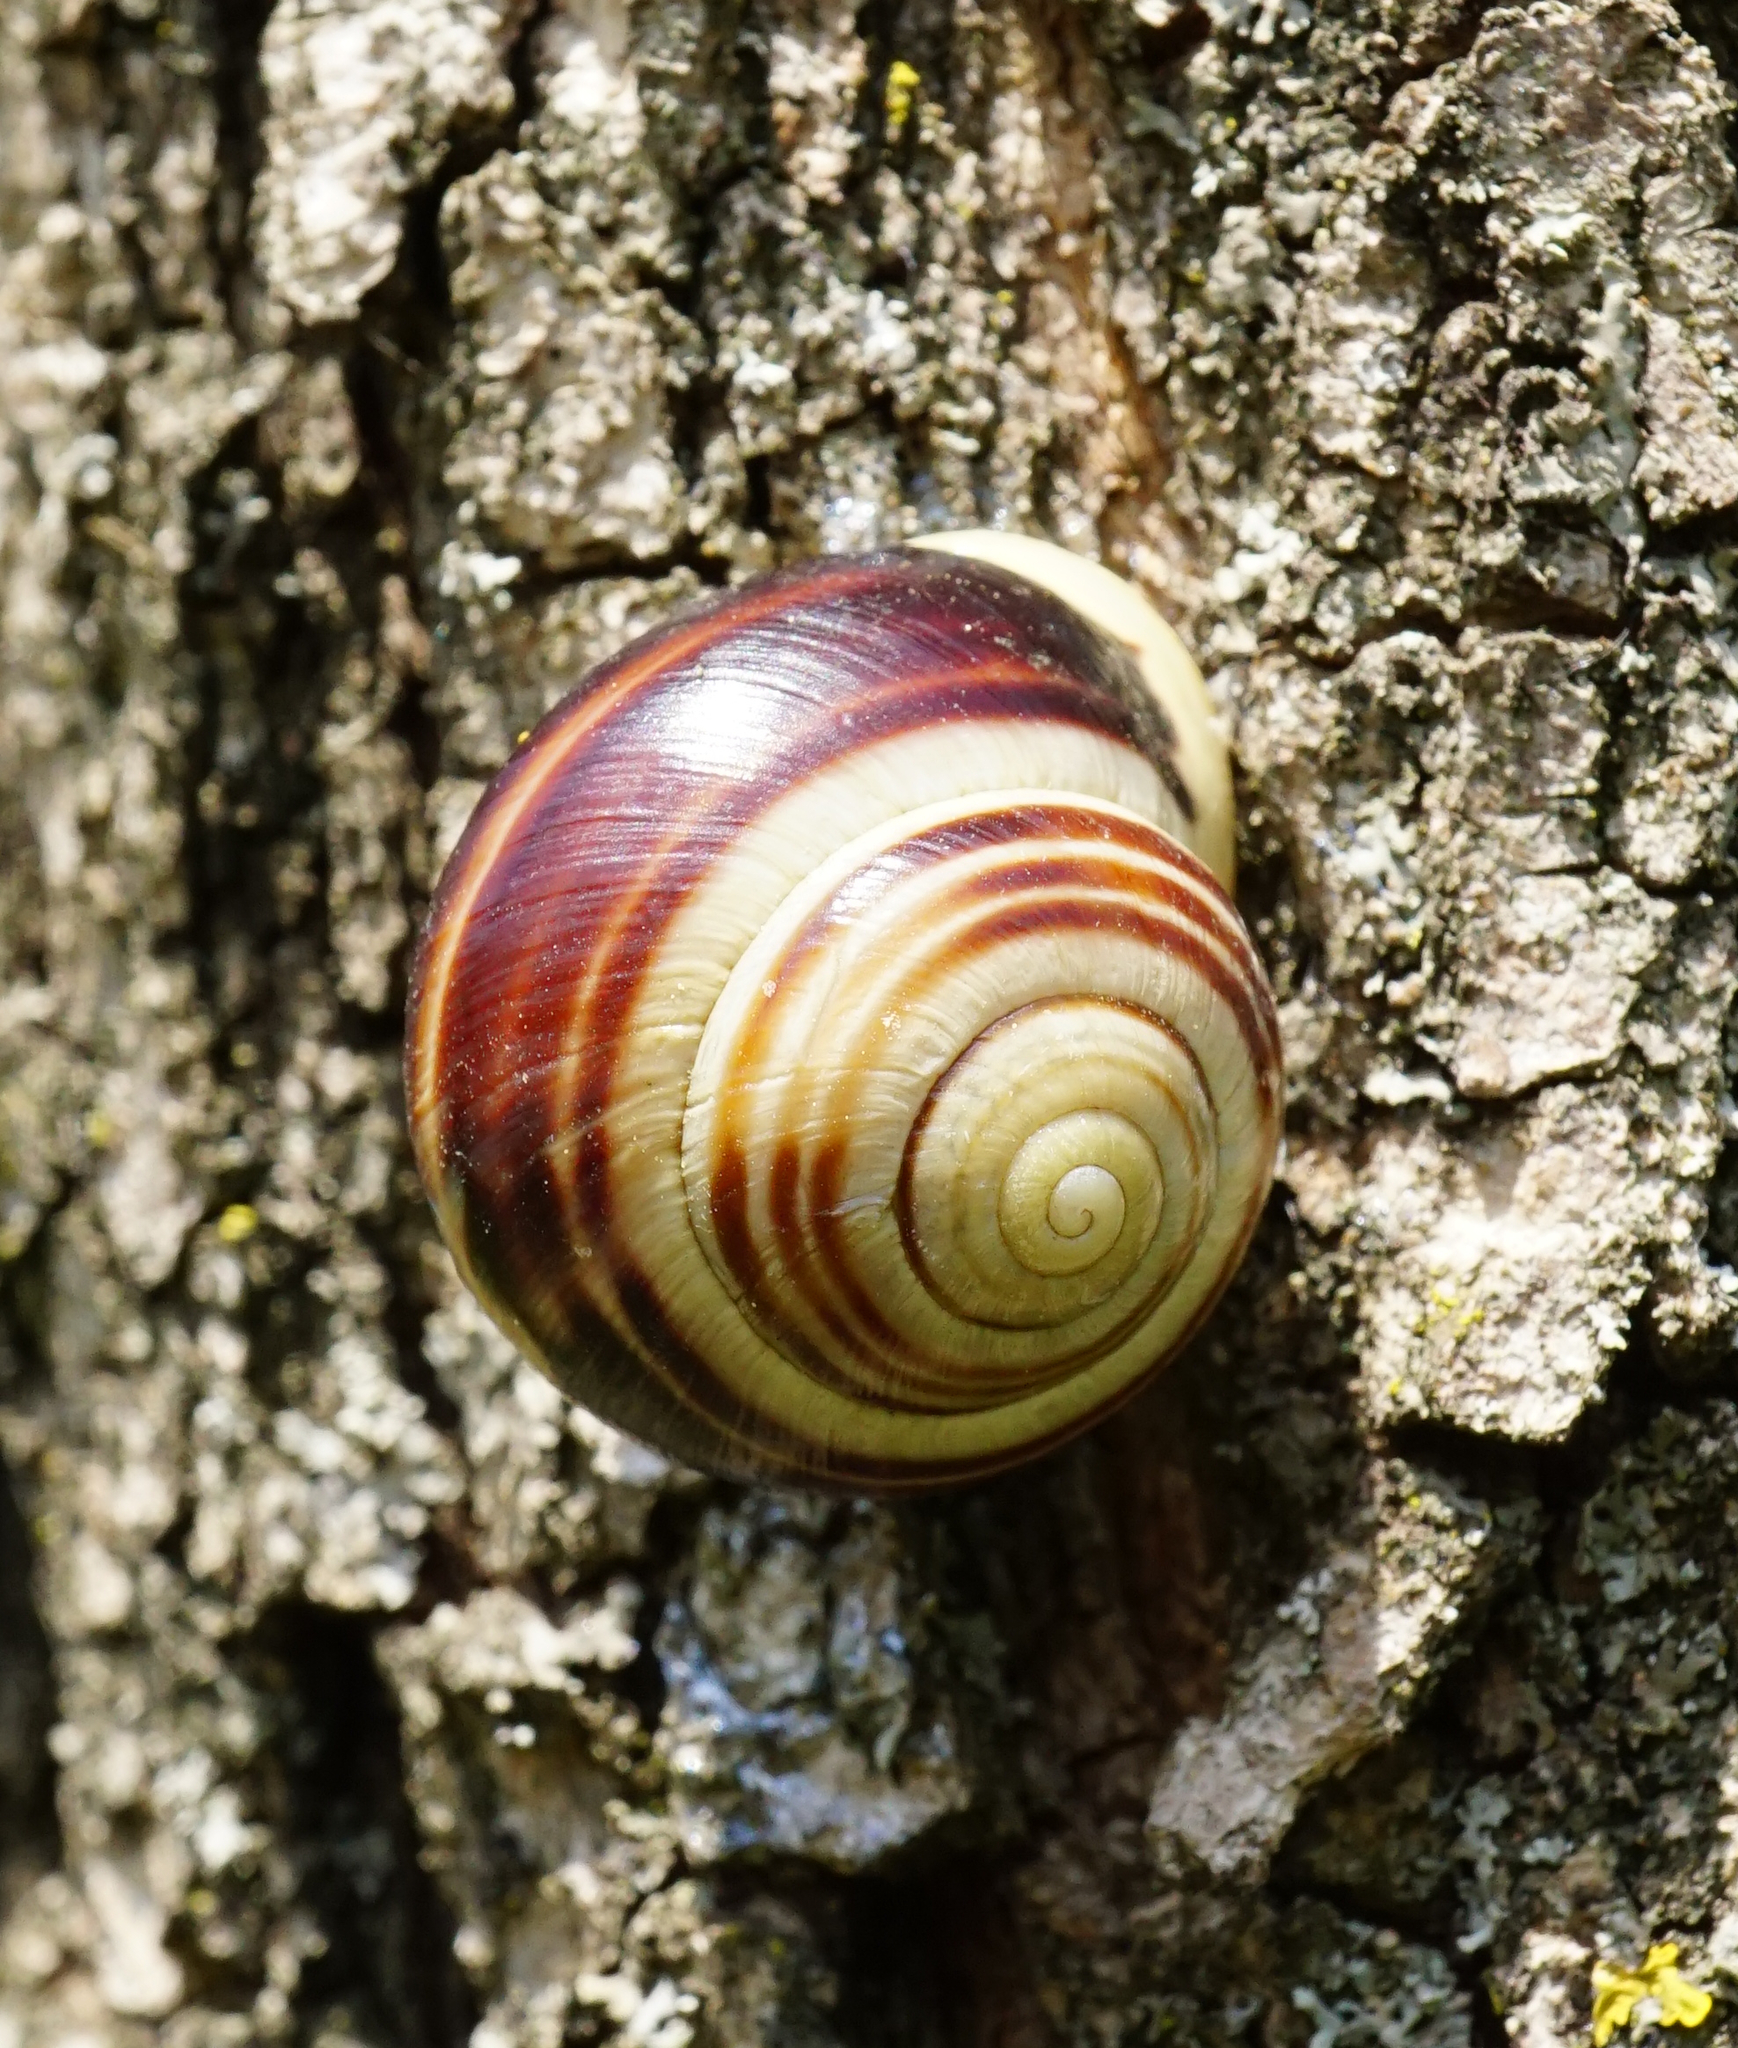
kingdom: Animalia
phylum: Mollusca
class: Gastropoda
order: Stylommatophora
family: Helicidae
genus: Cepaea
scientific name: Cepaea hortensis
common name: White-lip gardensnail
